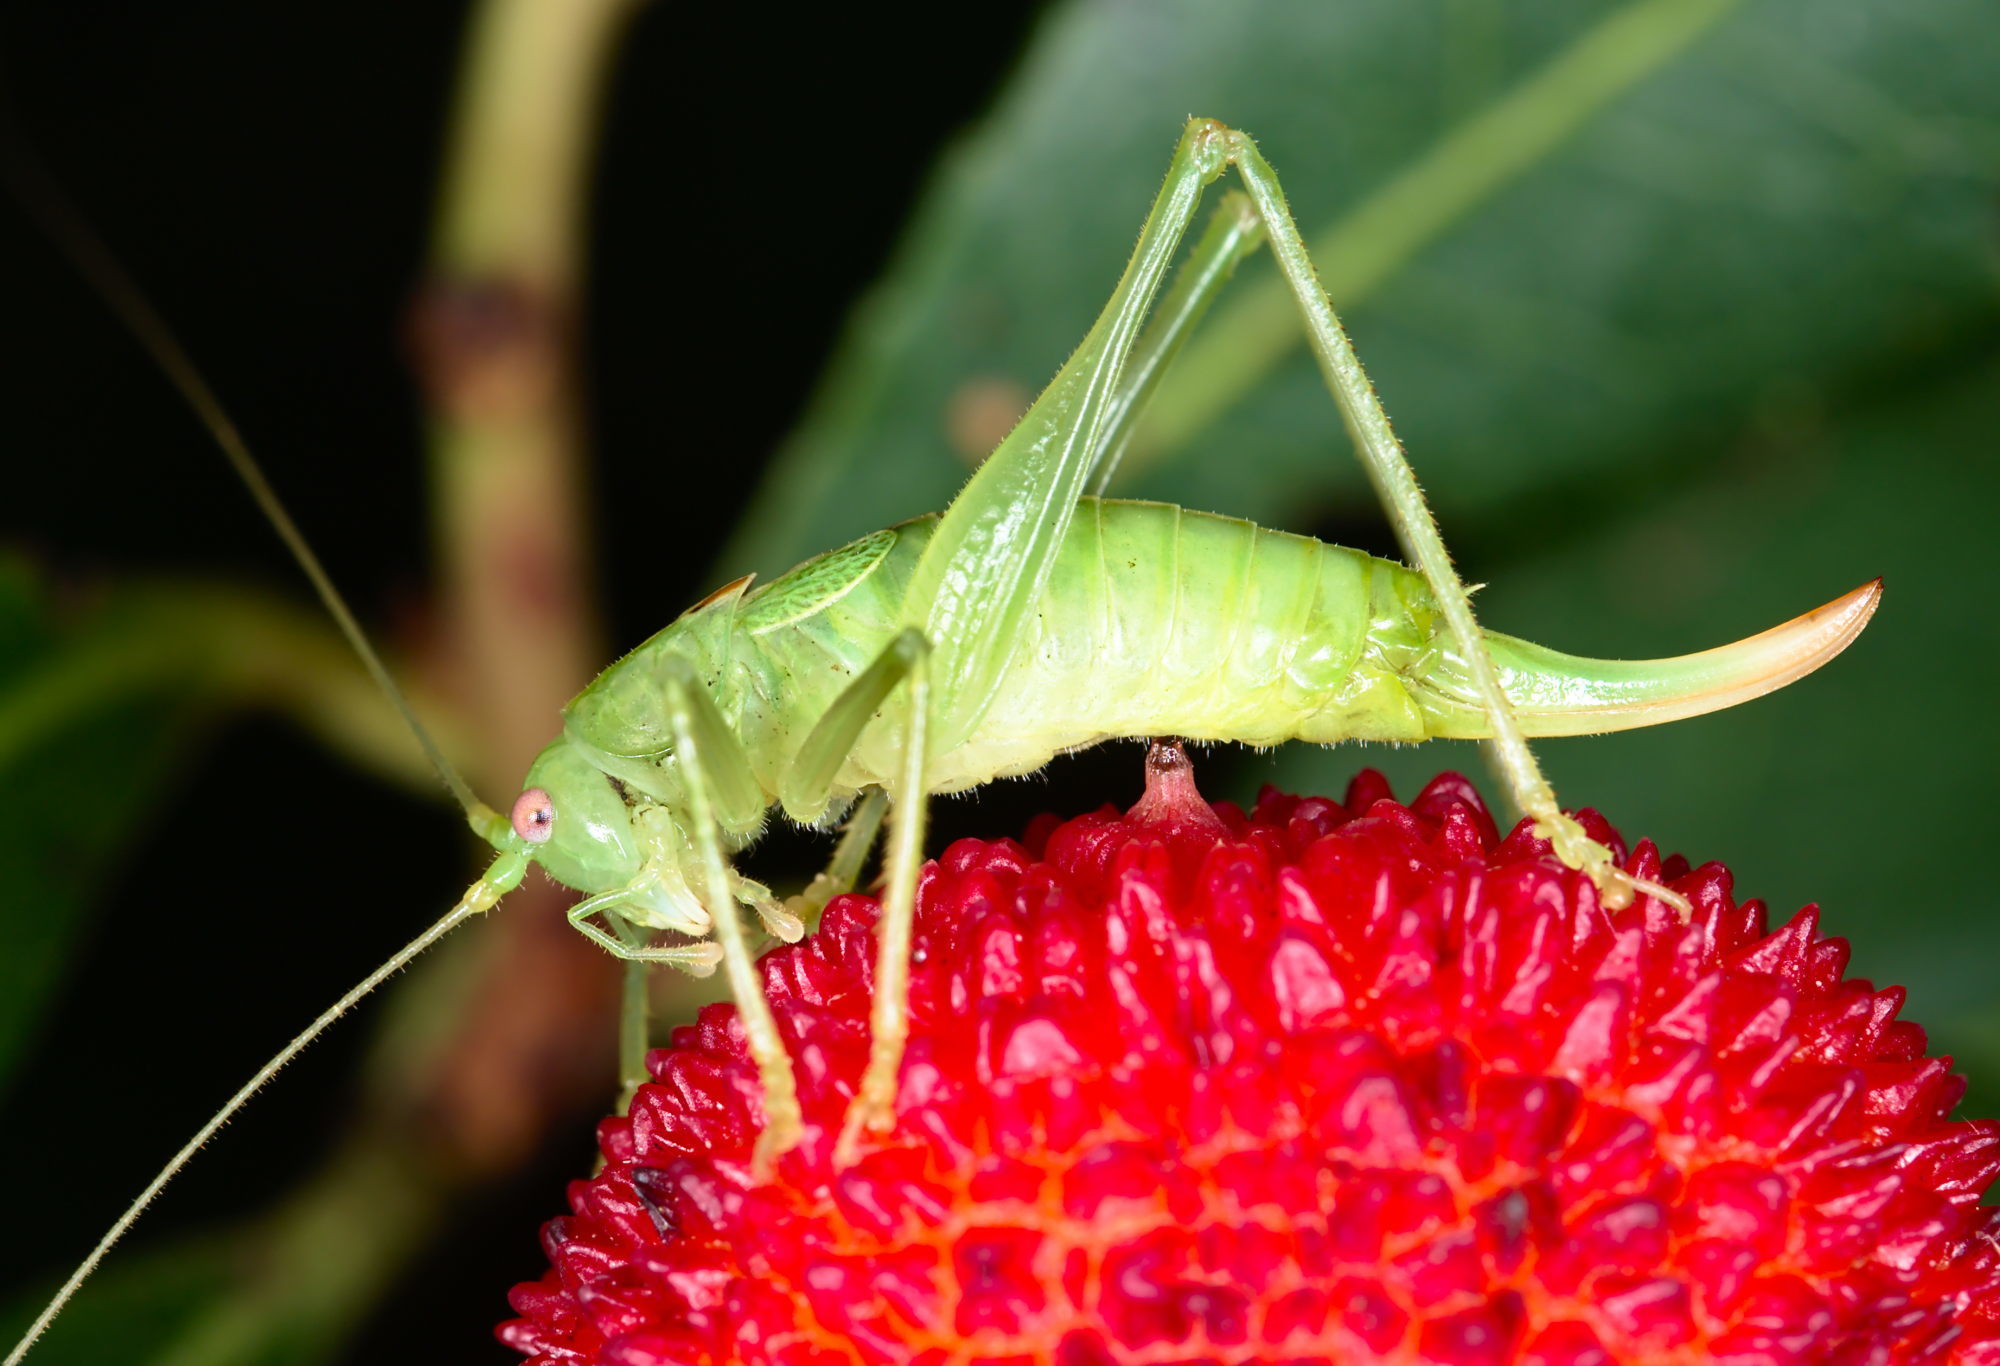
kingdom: Animalia
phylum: Arthropoda
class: Insecta
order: Orthoptera
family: Tettigoniidae
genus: Meconema
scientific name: Meconema meridionale
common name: Southern oak bush-cricket
